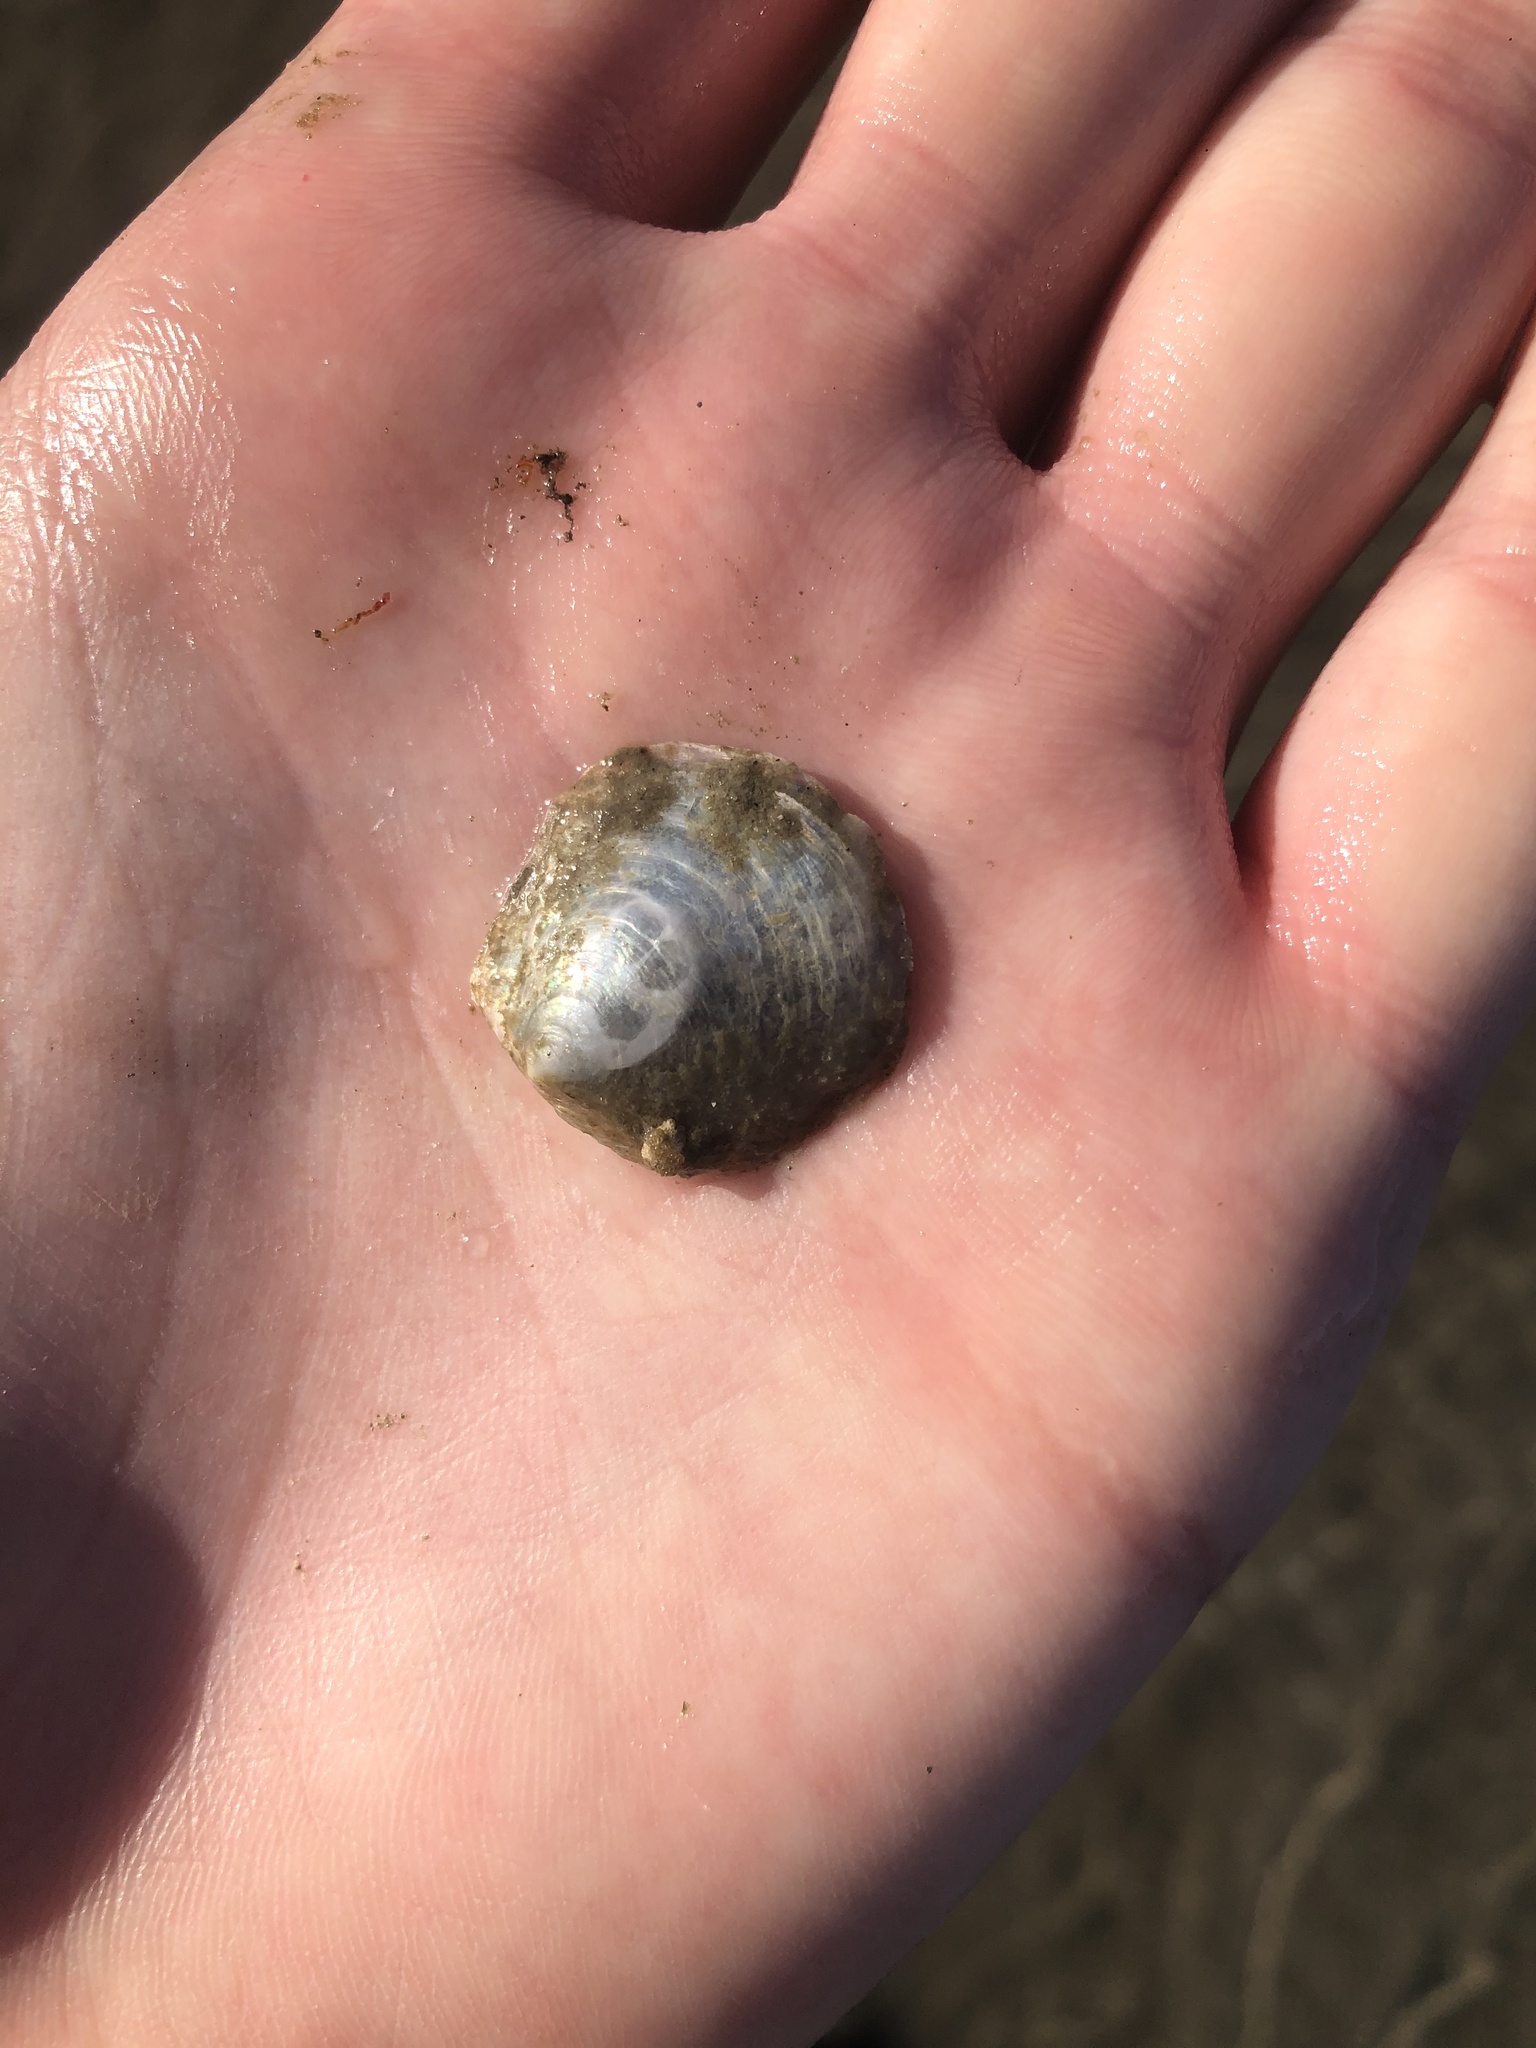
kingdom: Animalia
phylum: Mollusca
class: Bivalvia
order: Pectinida
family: Anomiidae
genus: Anomia
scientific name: Anomia simplex
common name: Common jingle shell
